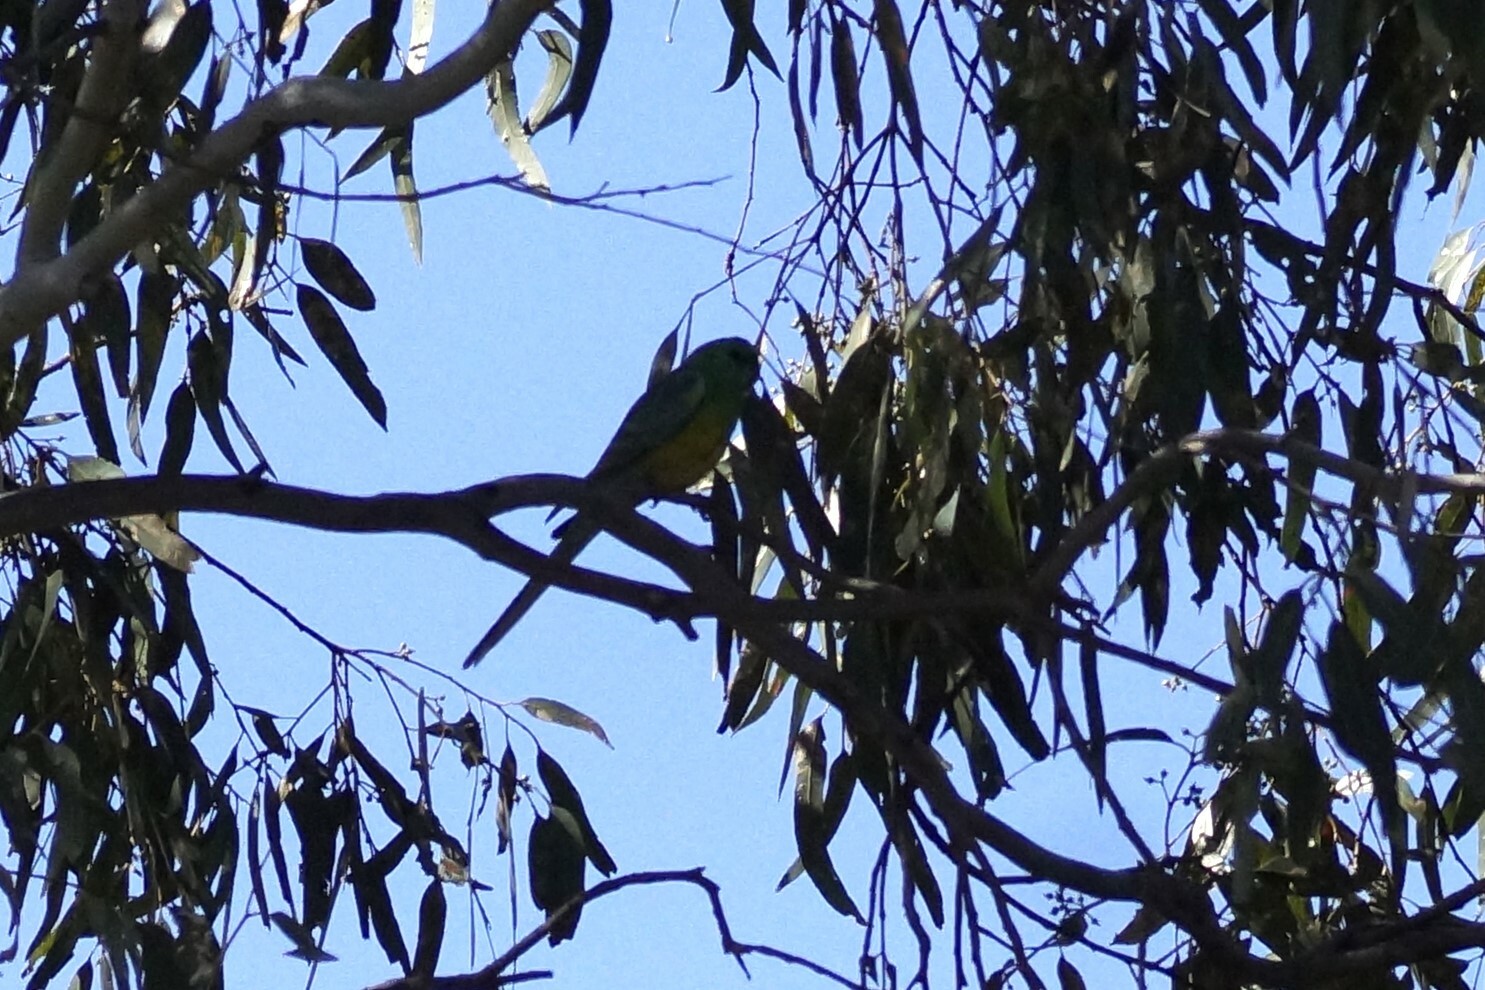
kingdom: Animalia
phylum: Chordata
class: Aves
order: Psittaciformes
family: Psittacidae
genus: Psephotus
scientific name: Psephotus haematonotus
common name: Red-rumped parrot
